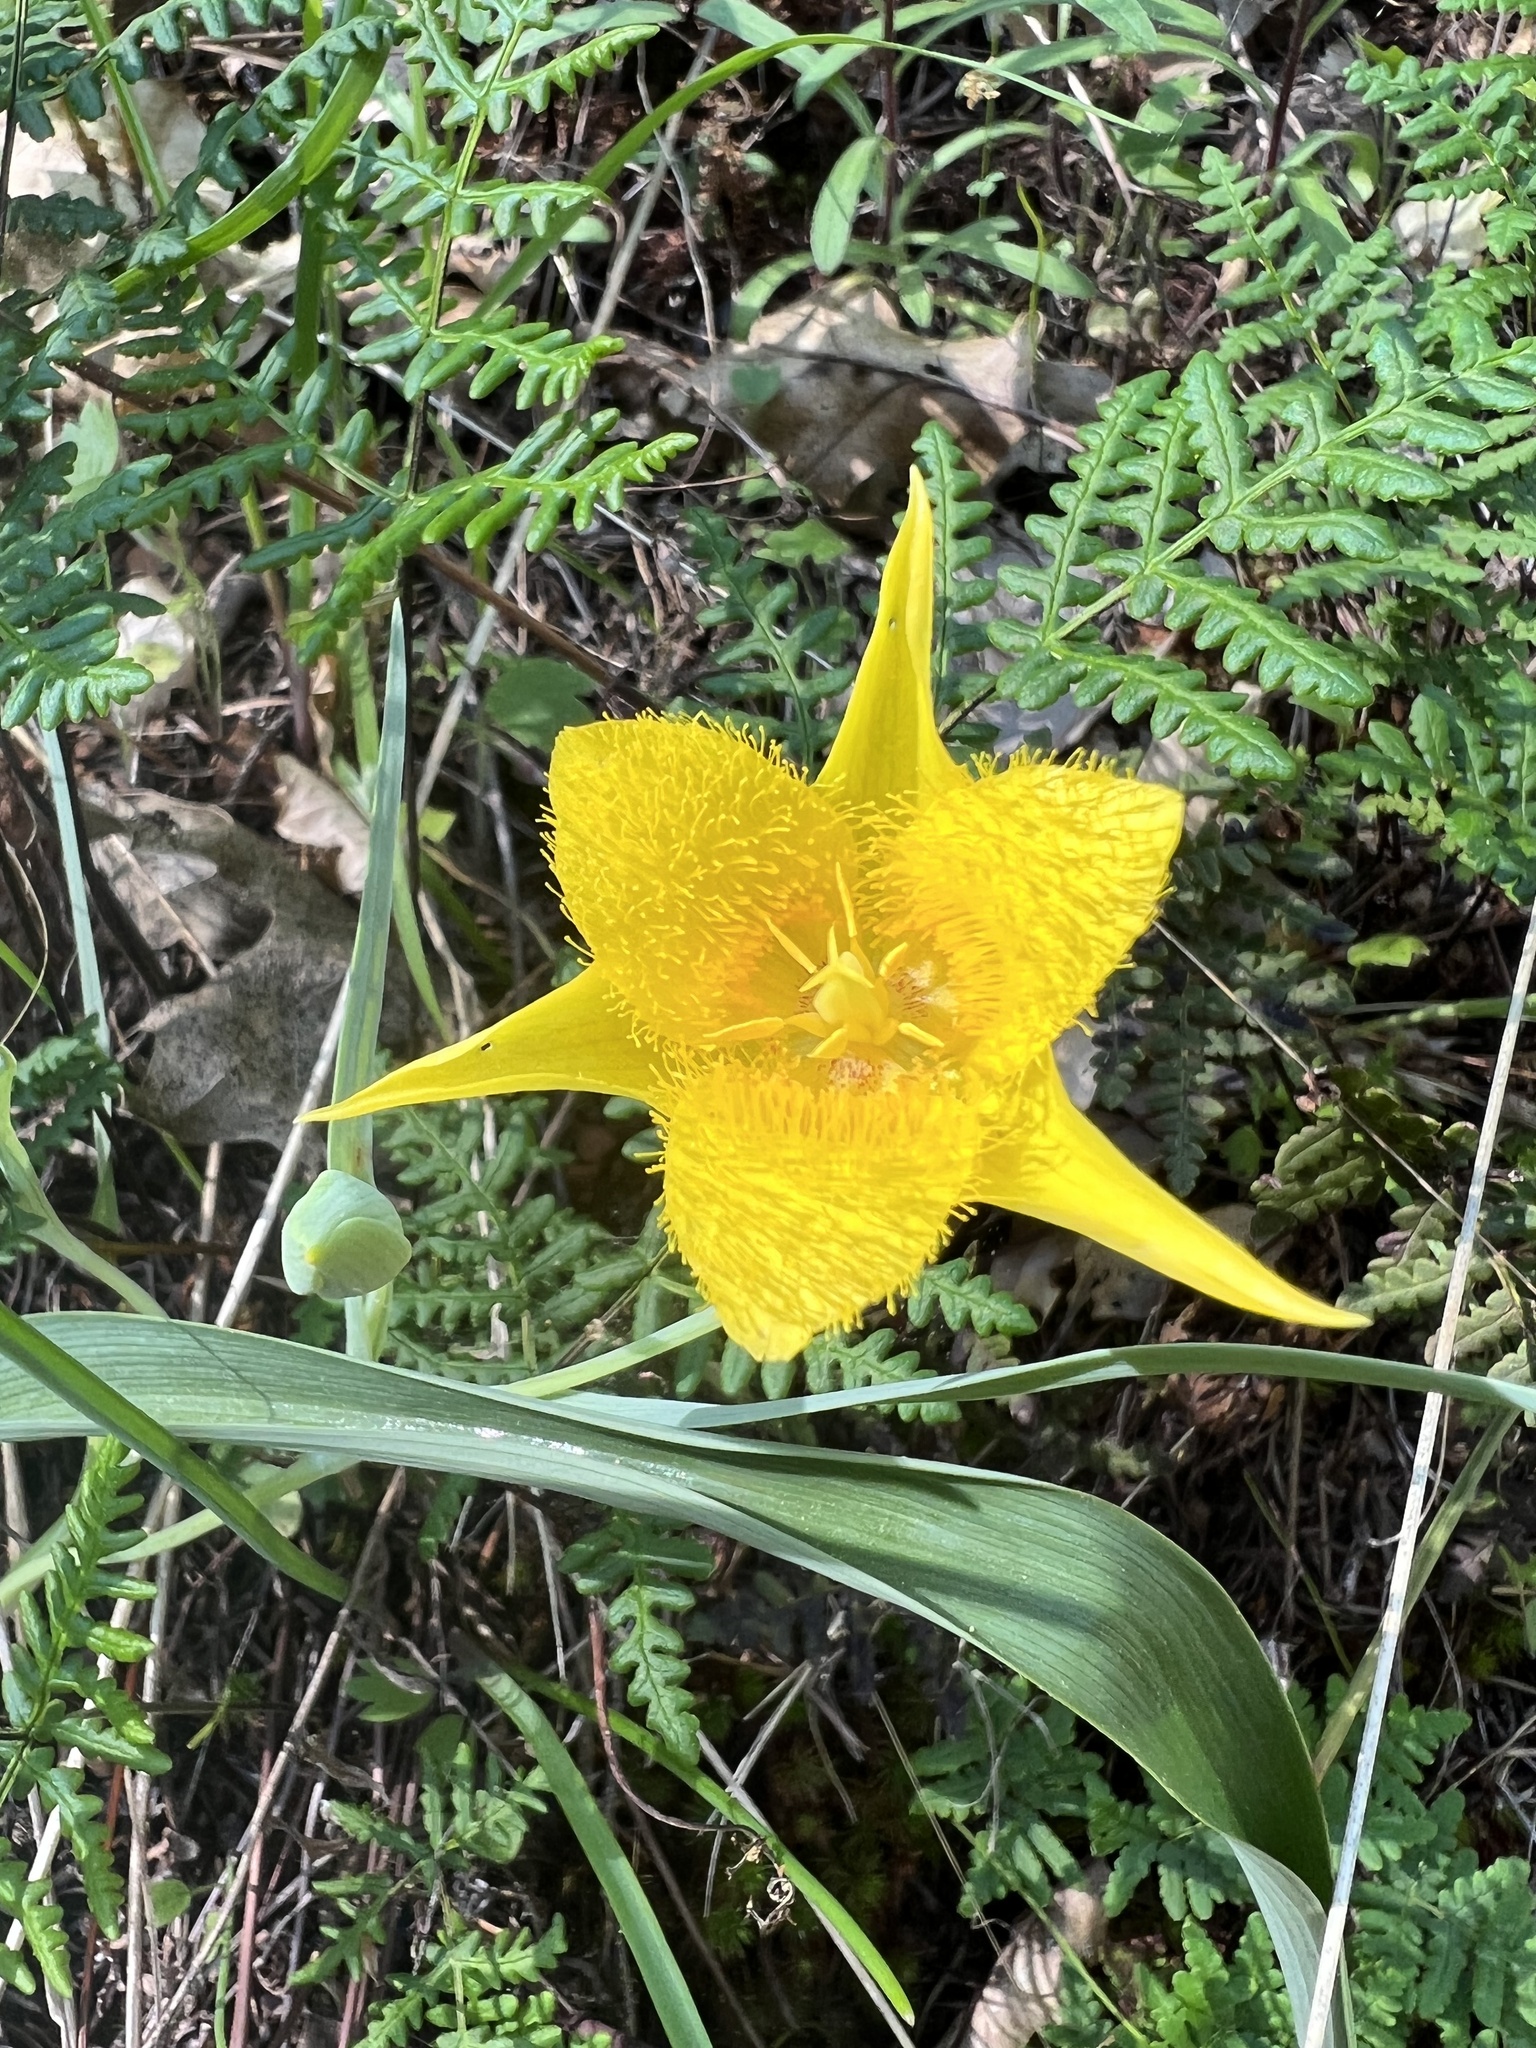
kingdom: Plantae
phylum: Tracheophyta
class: Liliopsida
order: Liliales
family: Liliaceae
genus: Calochortus
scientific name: Calochortus monophyllus
